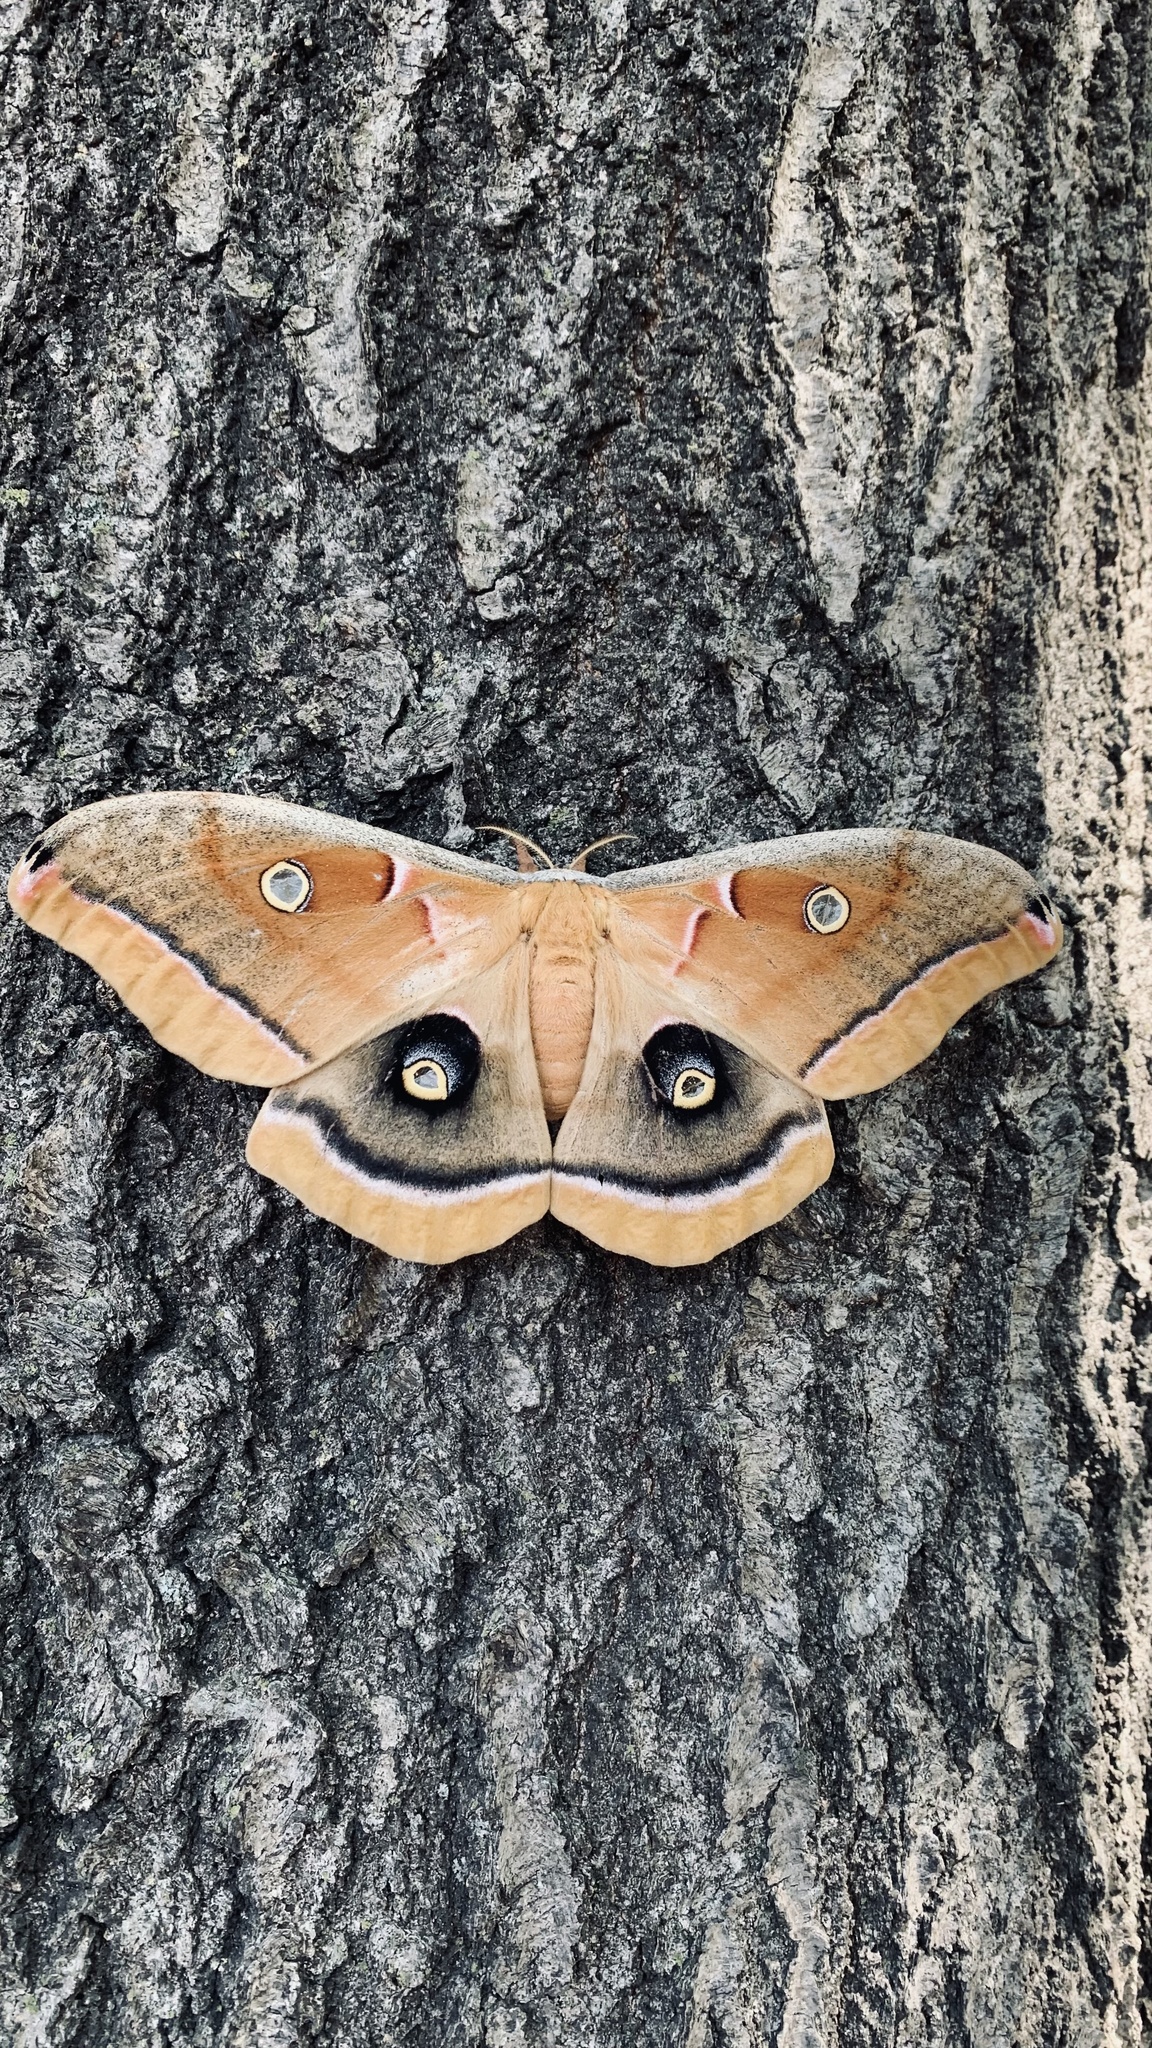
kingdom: Animalia
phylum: Arthropoda
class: Insecta
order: Lepidoptera
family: Saturniidae
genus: Antheraea
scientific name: Antheraea polyphemus
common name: Polyphemus moth
